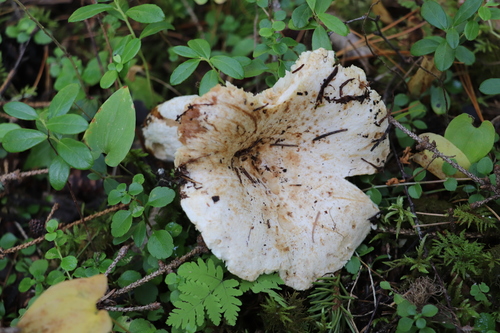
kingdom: Fungi
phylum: Basidiomycota
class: Agaricomycetes
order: Russulales
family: Russulaceae
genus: Russula
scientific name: Russula delica
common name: Milk white brittlegill
